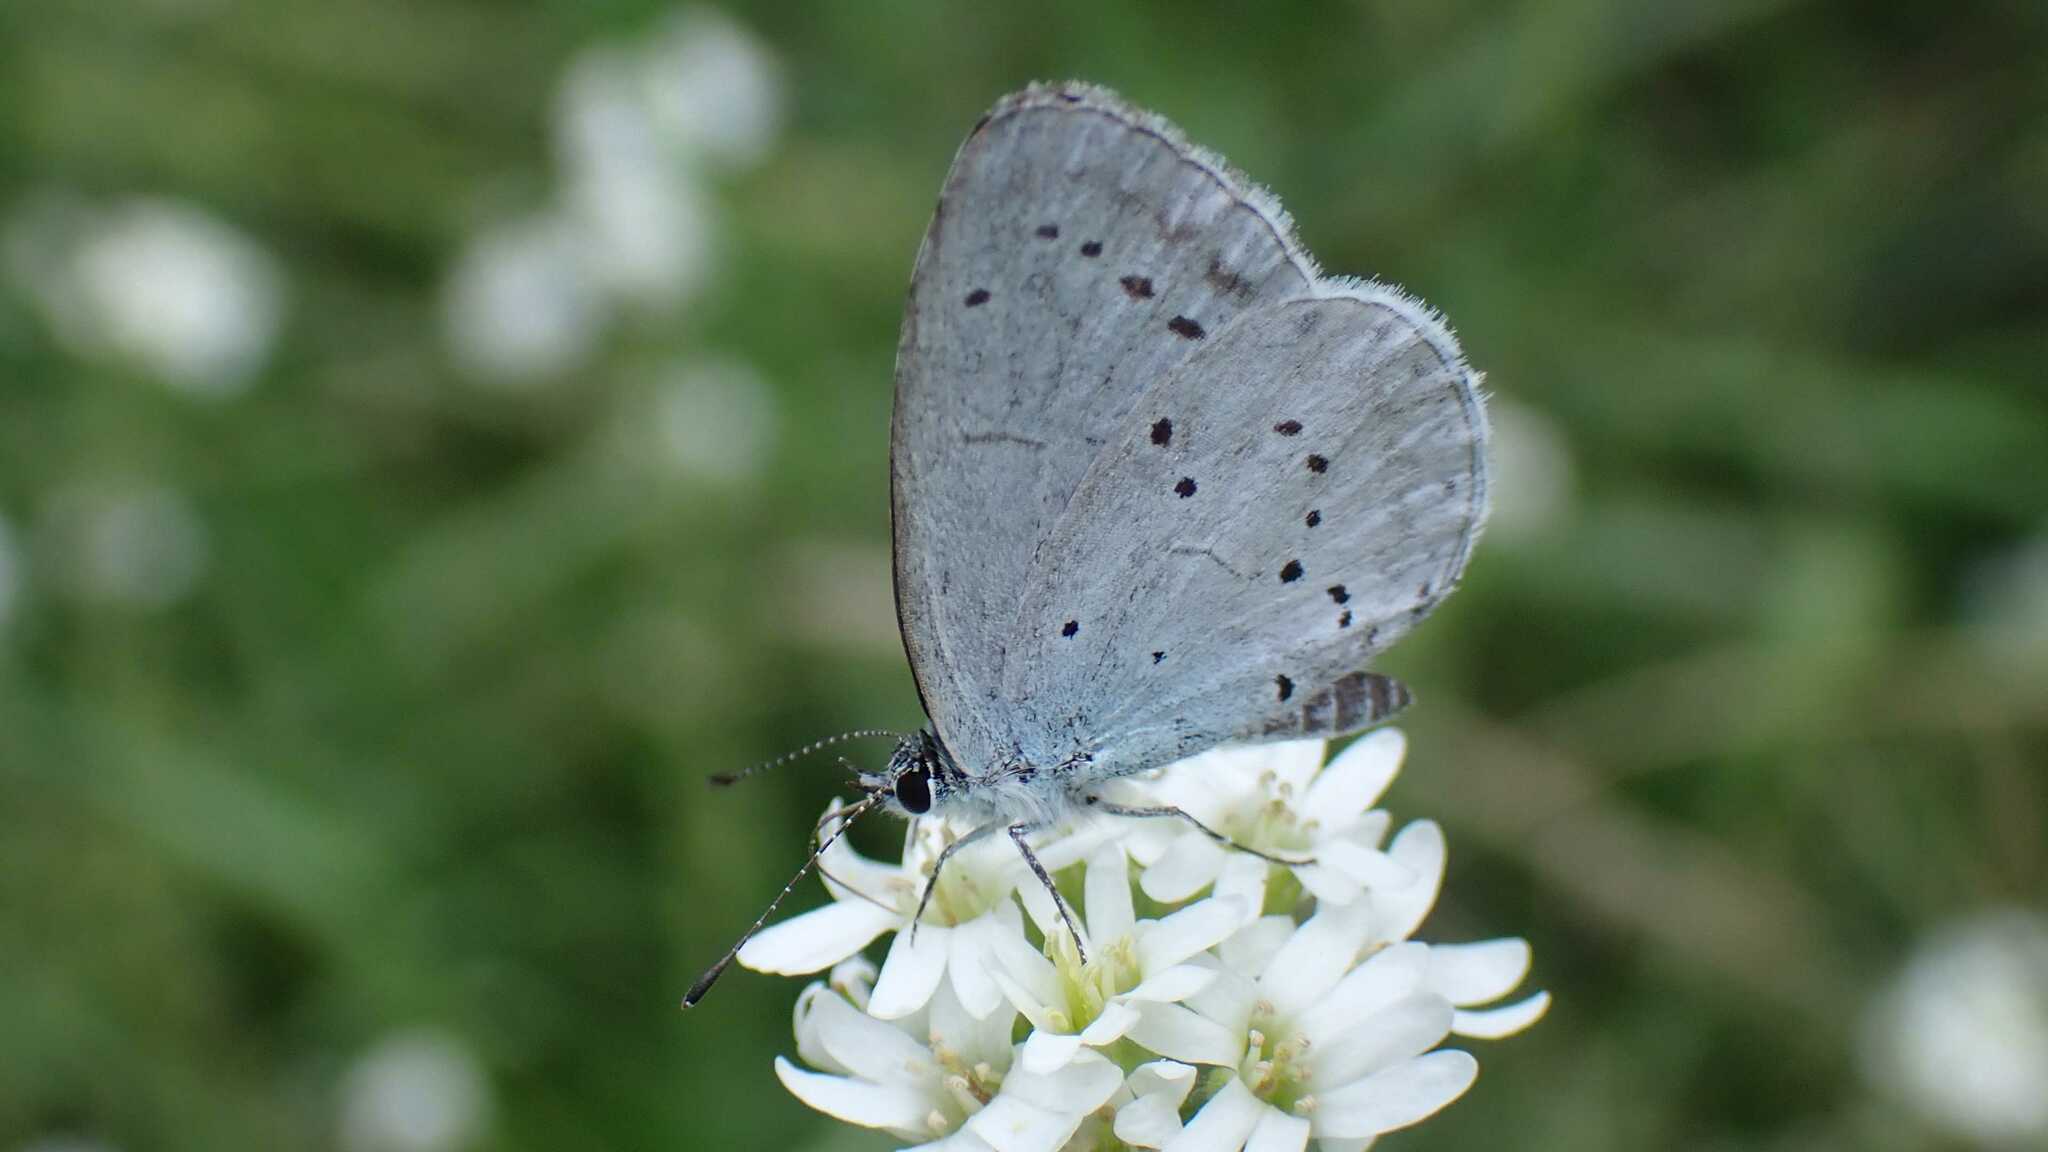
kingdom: Animalia
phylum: Arthropoda
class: Insecta
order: Lepidoptera
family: Lycaenidae
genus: Celastrina
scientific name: Celastrina argiolus
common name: Holly blue
